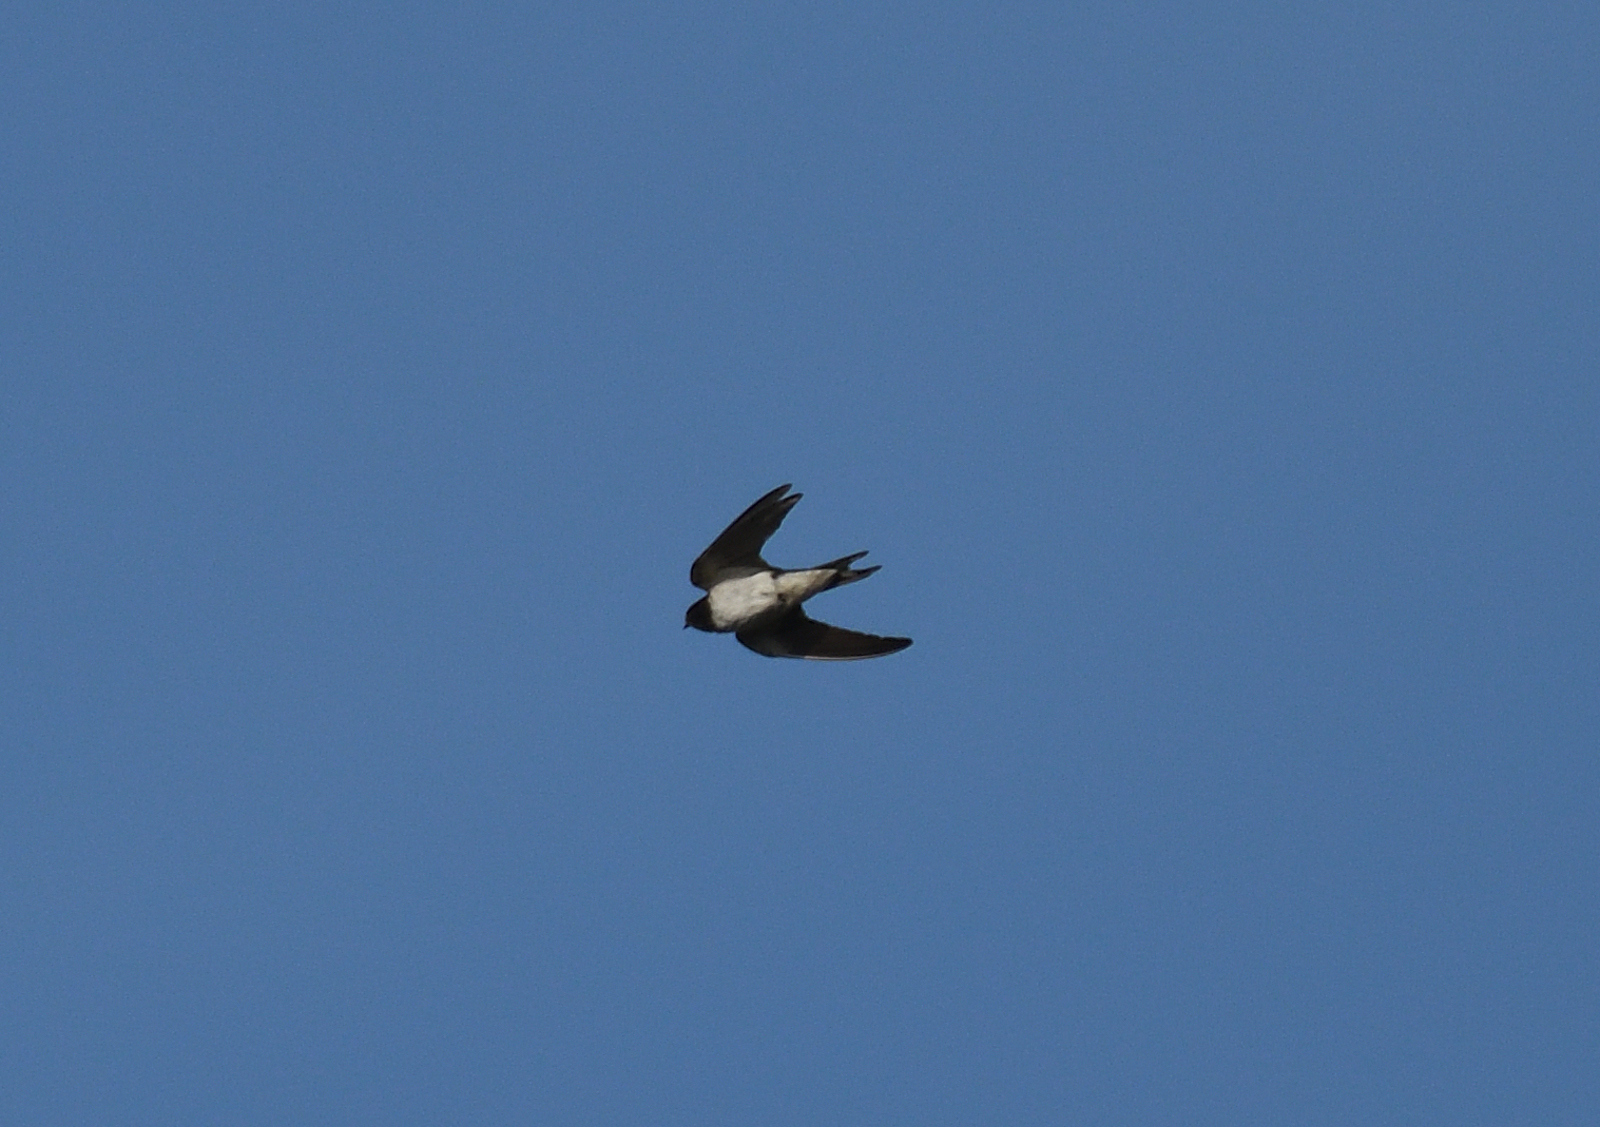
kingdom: Animalia
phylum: Chordata
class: Aves
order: Passeriformes
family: Hirundinidae
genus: Hirundo
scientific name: Hirundo rustica
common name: Barn swallow
